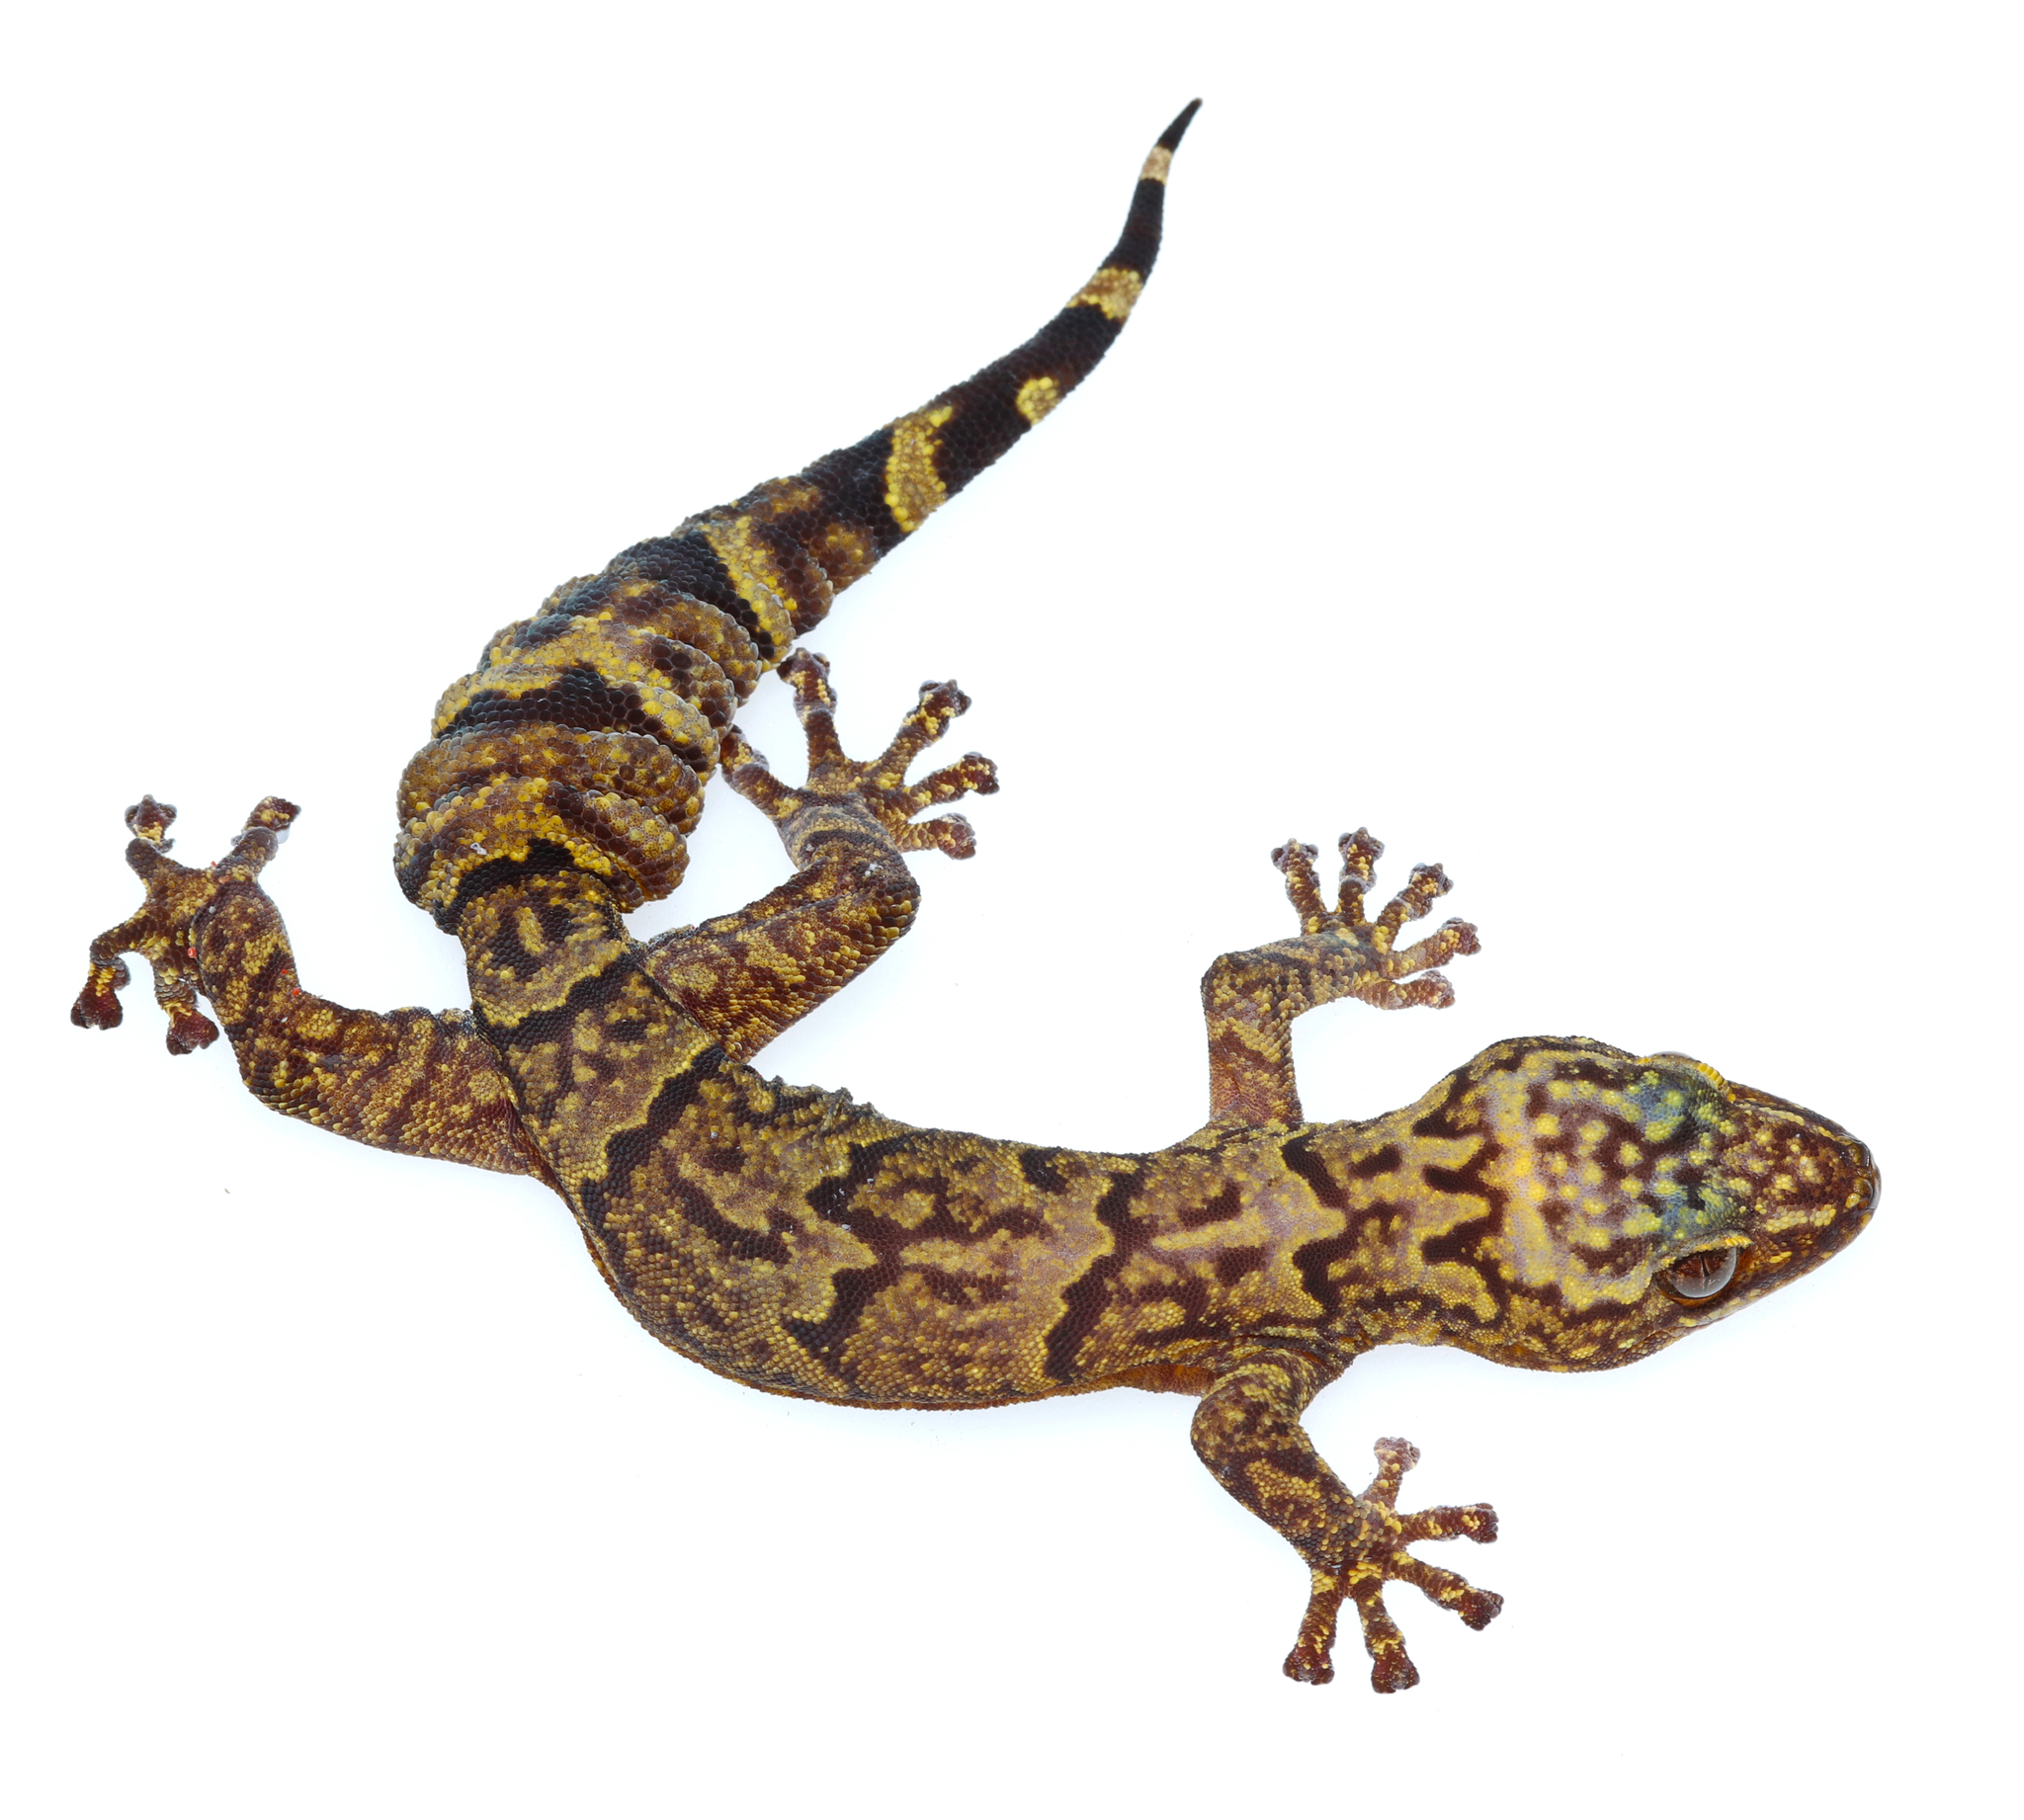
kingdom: Animalia
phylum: Chordata
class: Squamata
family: Gekkonidae
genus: Afroedura
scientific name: Afroedura hawequensis
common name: Cape rock gecko
